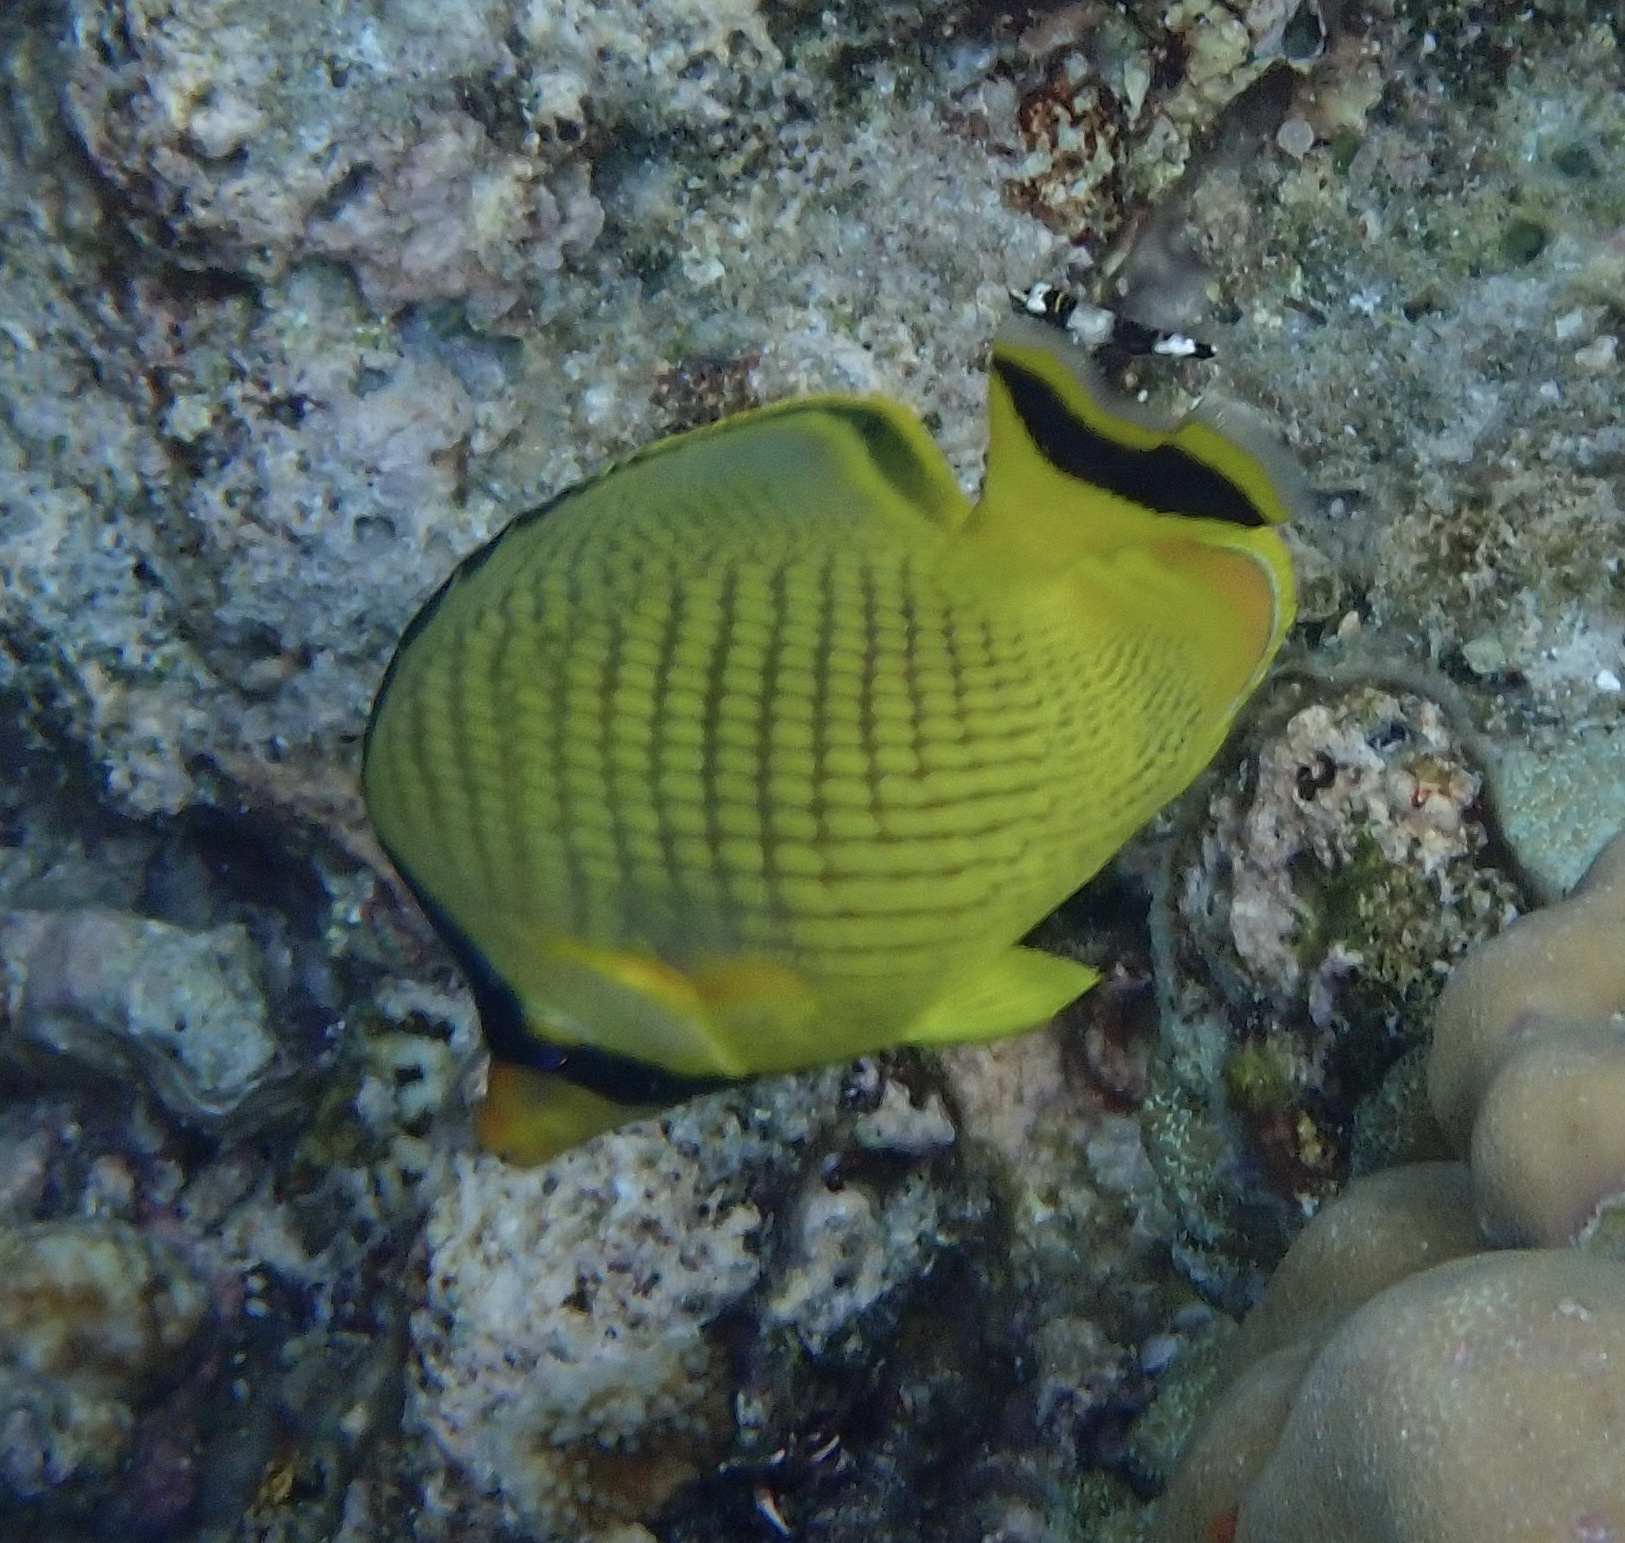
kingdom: Animalia
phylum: Chordata
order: Perciformes
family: Chaetodontidae
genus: Chaetodon
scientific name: Chaetodon rafflesii
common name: Latticed butterflyfish
